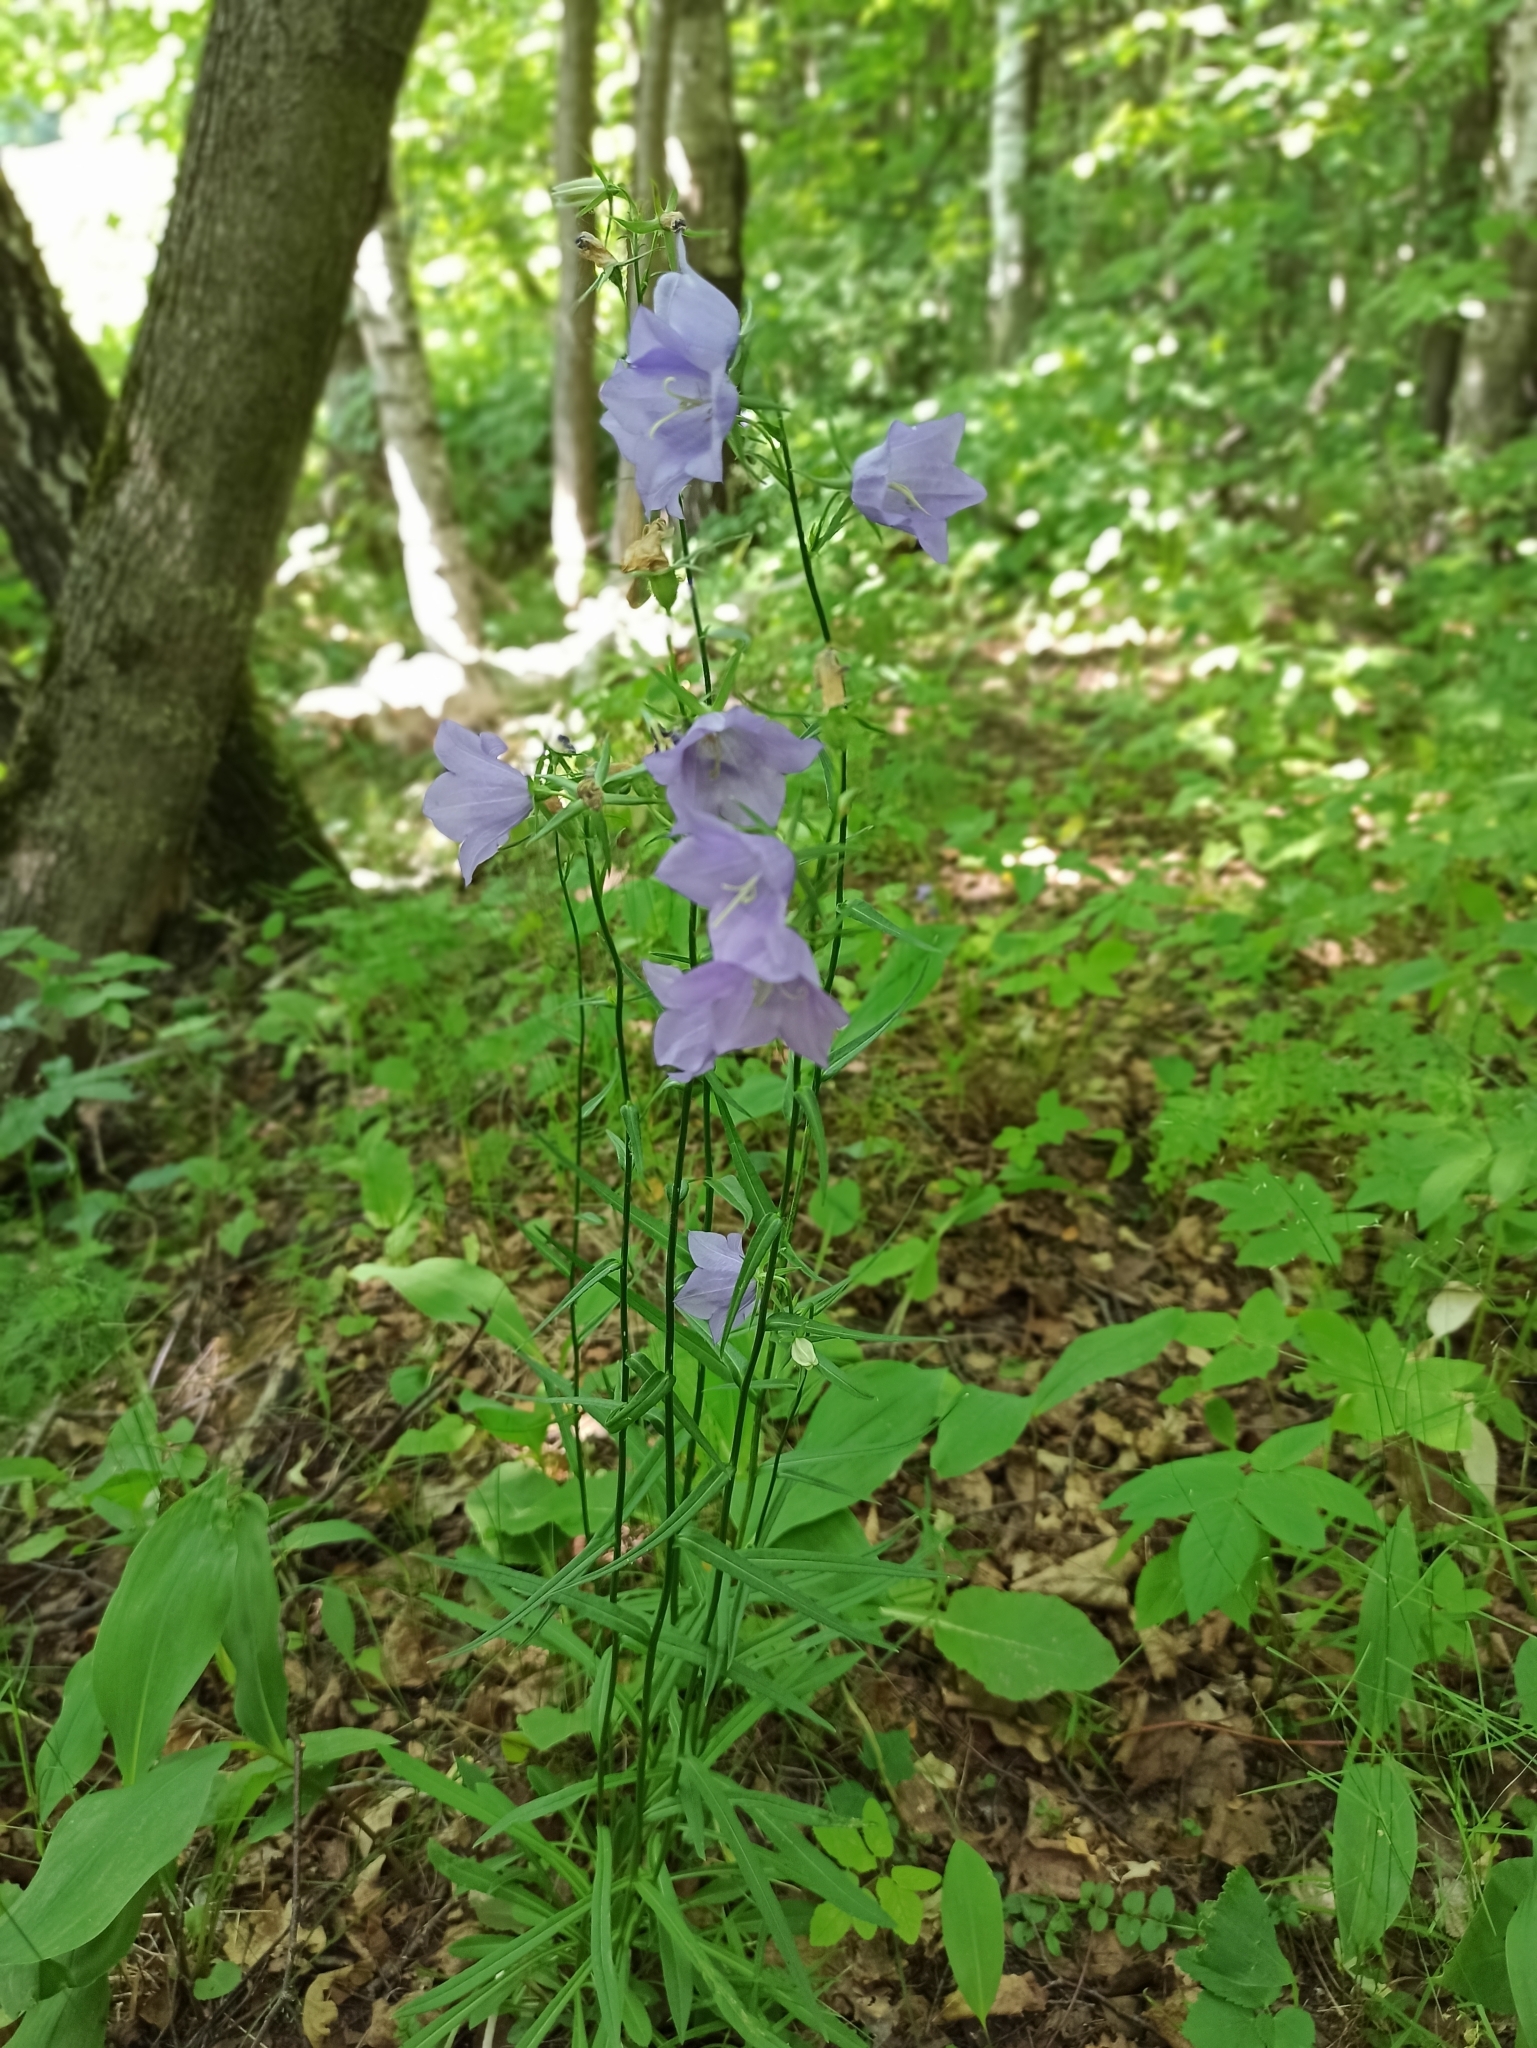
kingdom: Plantae
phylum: Tracheophyta
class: Magnoliopsida
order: Asterales
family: Campanulaceae
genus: Campanula
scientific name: Campanula persicifolia
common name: Peach-leaved bellflower
